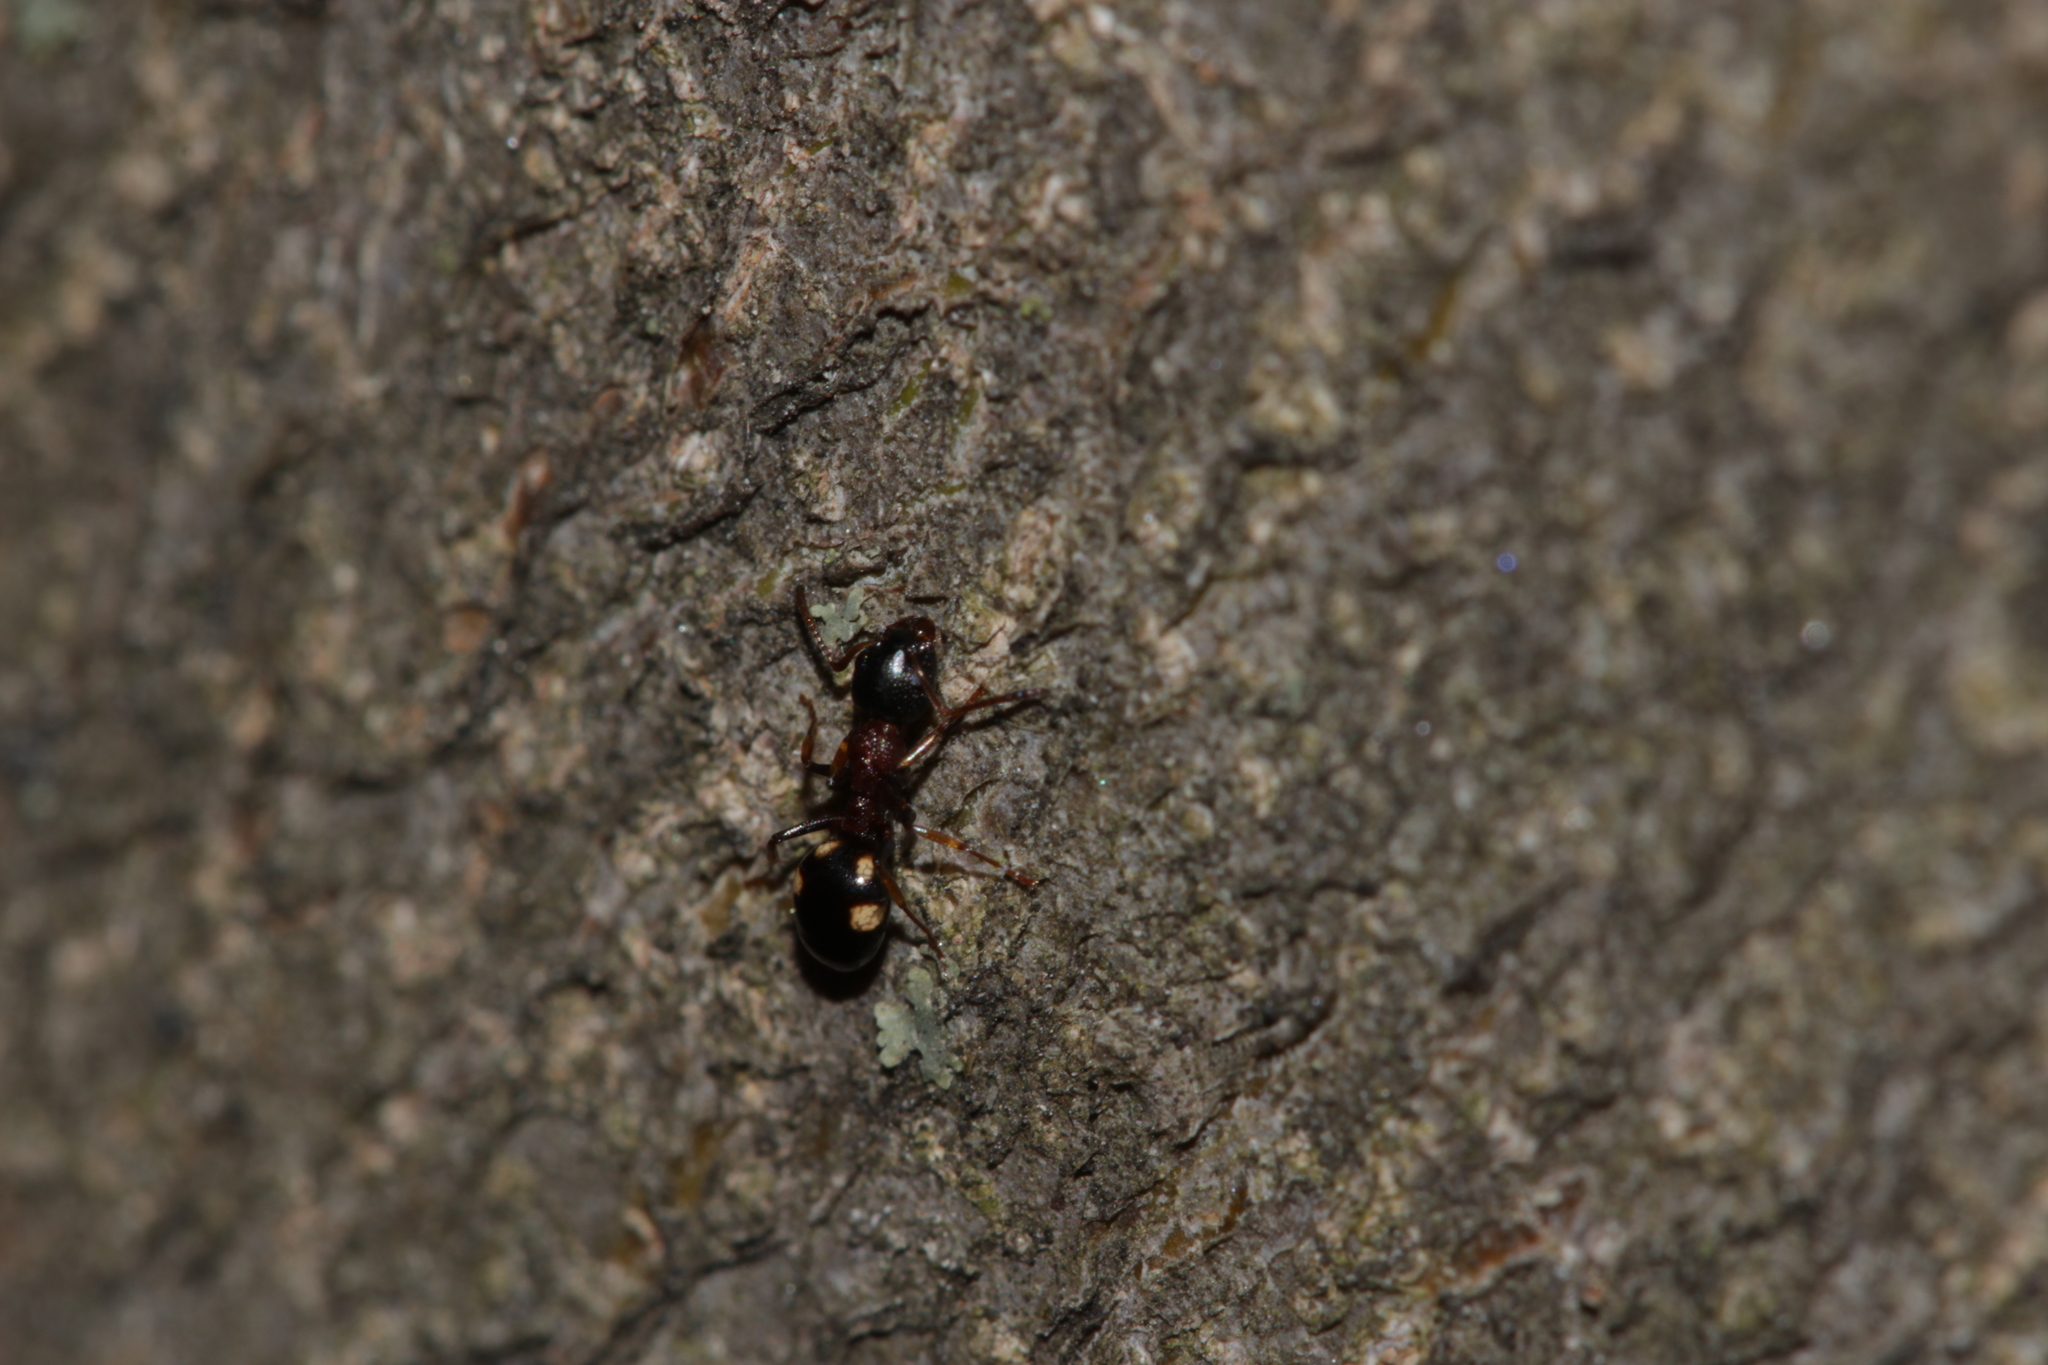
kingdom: Animalia
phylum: Arthropoda
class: Insecta
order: Hymenoptera
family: Formicidae
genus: Dolichoderus
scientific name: Dolichoderus quadripunctatus
